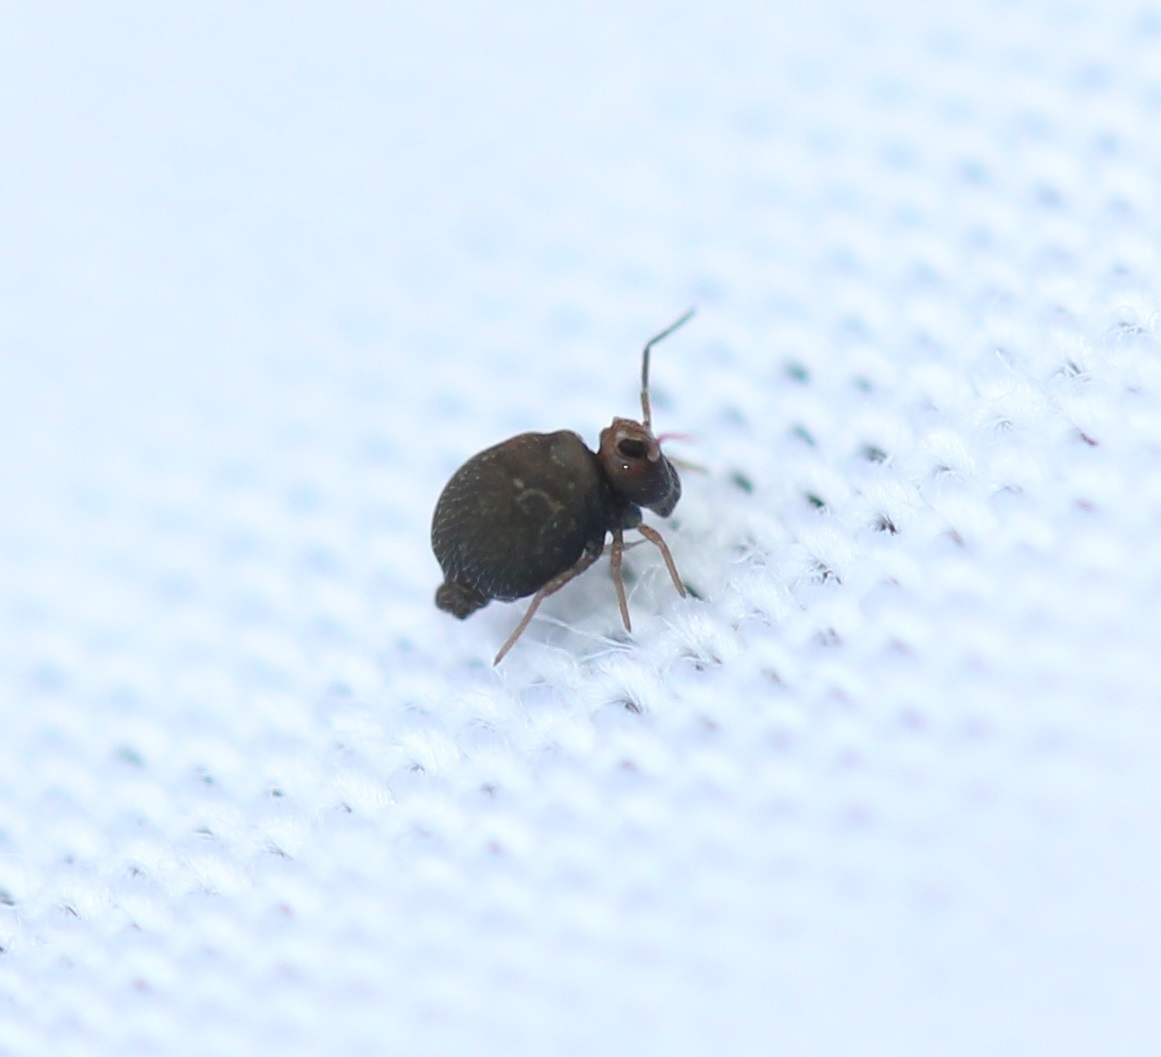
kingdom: Animalia
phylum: Arthropoda
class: Collembola
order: Symphypleona
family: Bourletiellidae
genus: Bourletiella
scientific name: Bourletiella hortensis
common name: Garden springtail
